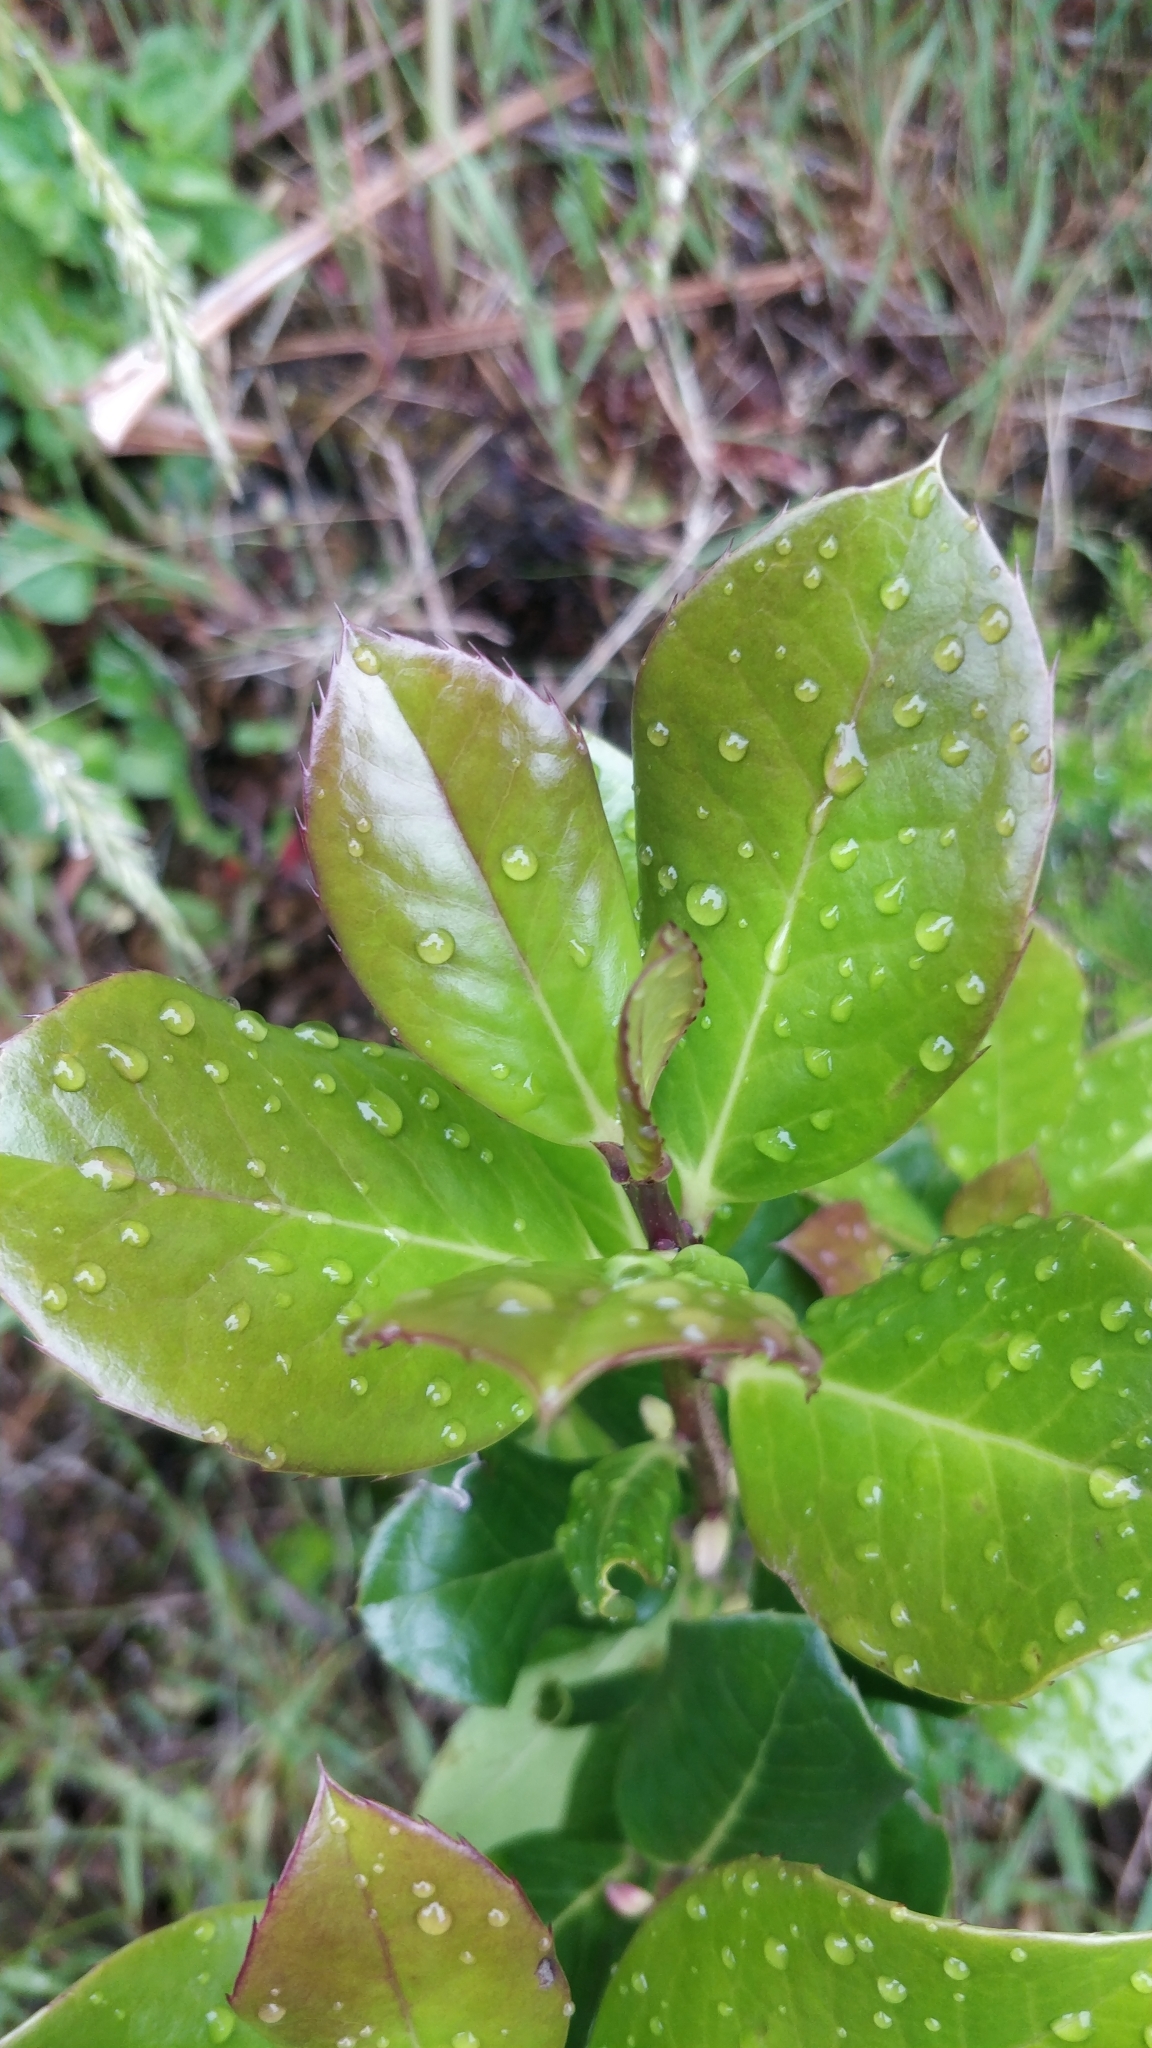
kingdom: Plantae
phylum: Tracheophyta
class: Magnoliopsida
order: Aquifoliales
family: Aquifoliaceae
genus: Ilex
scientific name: Ilex perado
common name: Madeira holly
